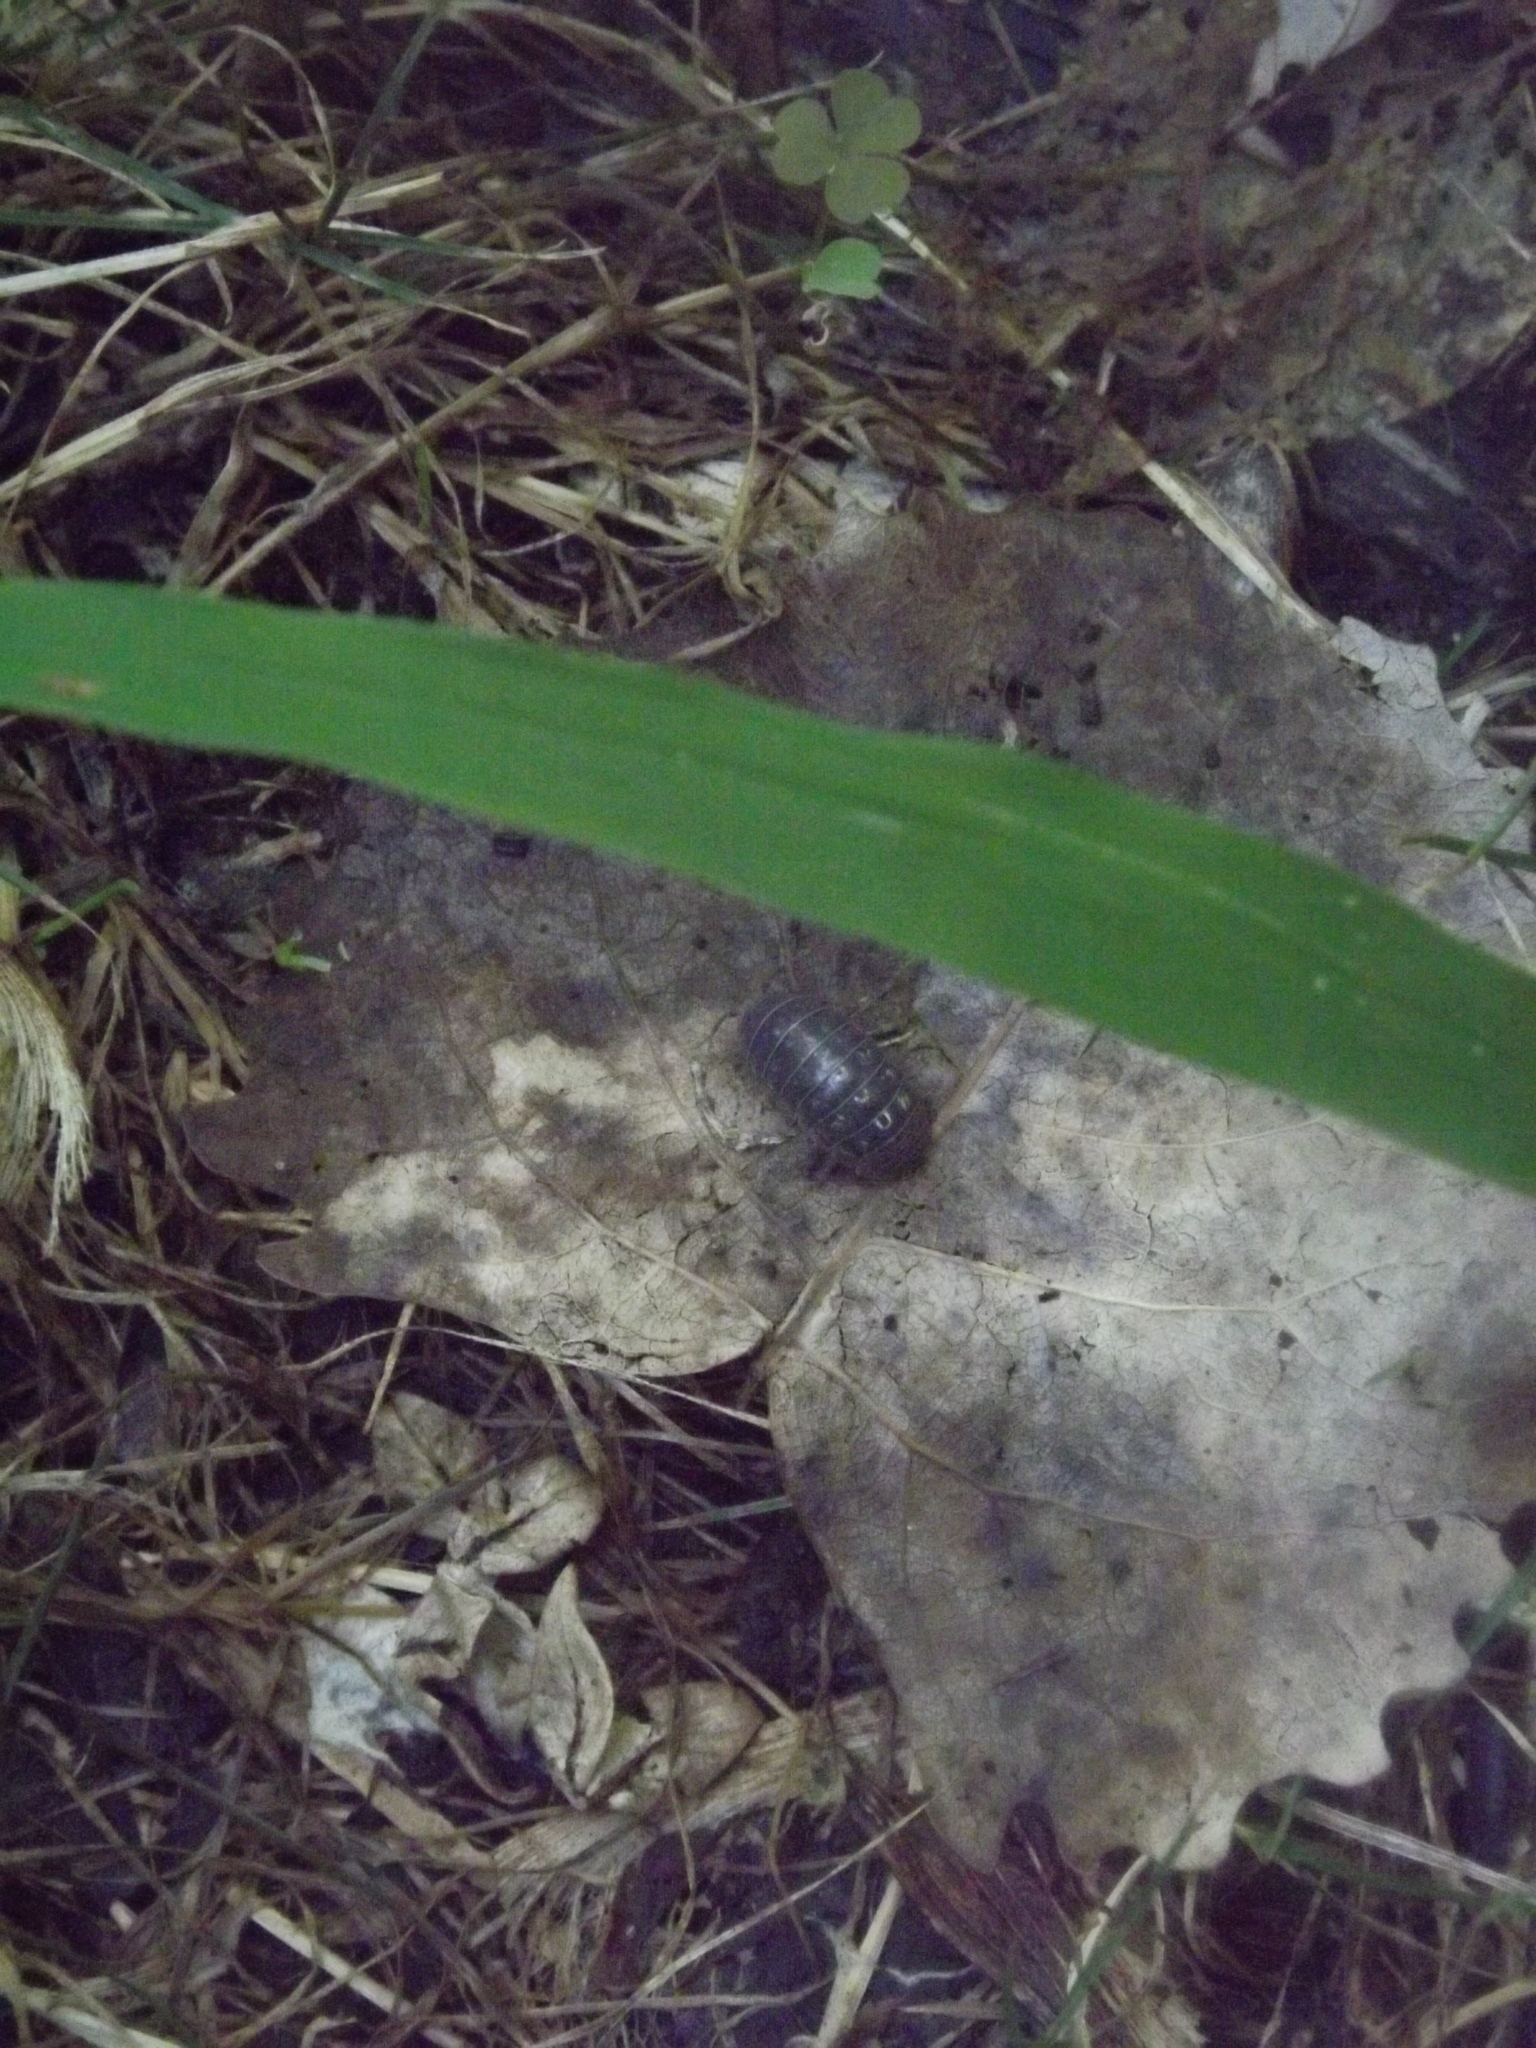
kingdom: Animalia
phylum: Arthropoda
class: Malacostraca
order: Isopoda
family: Armadillidiidae
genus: Armadillidium
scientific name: Armadillidium vulgare
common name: Common pill woodlouse
